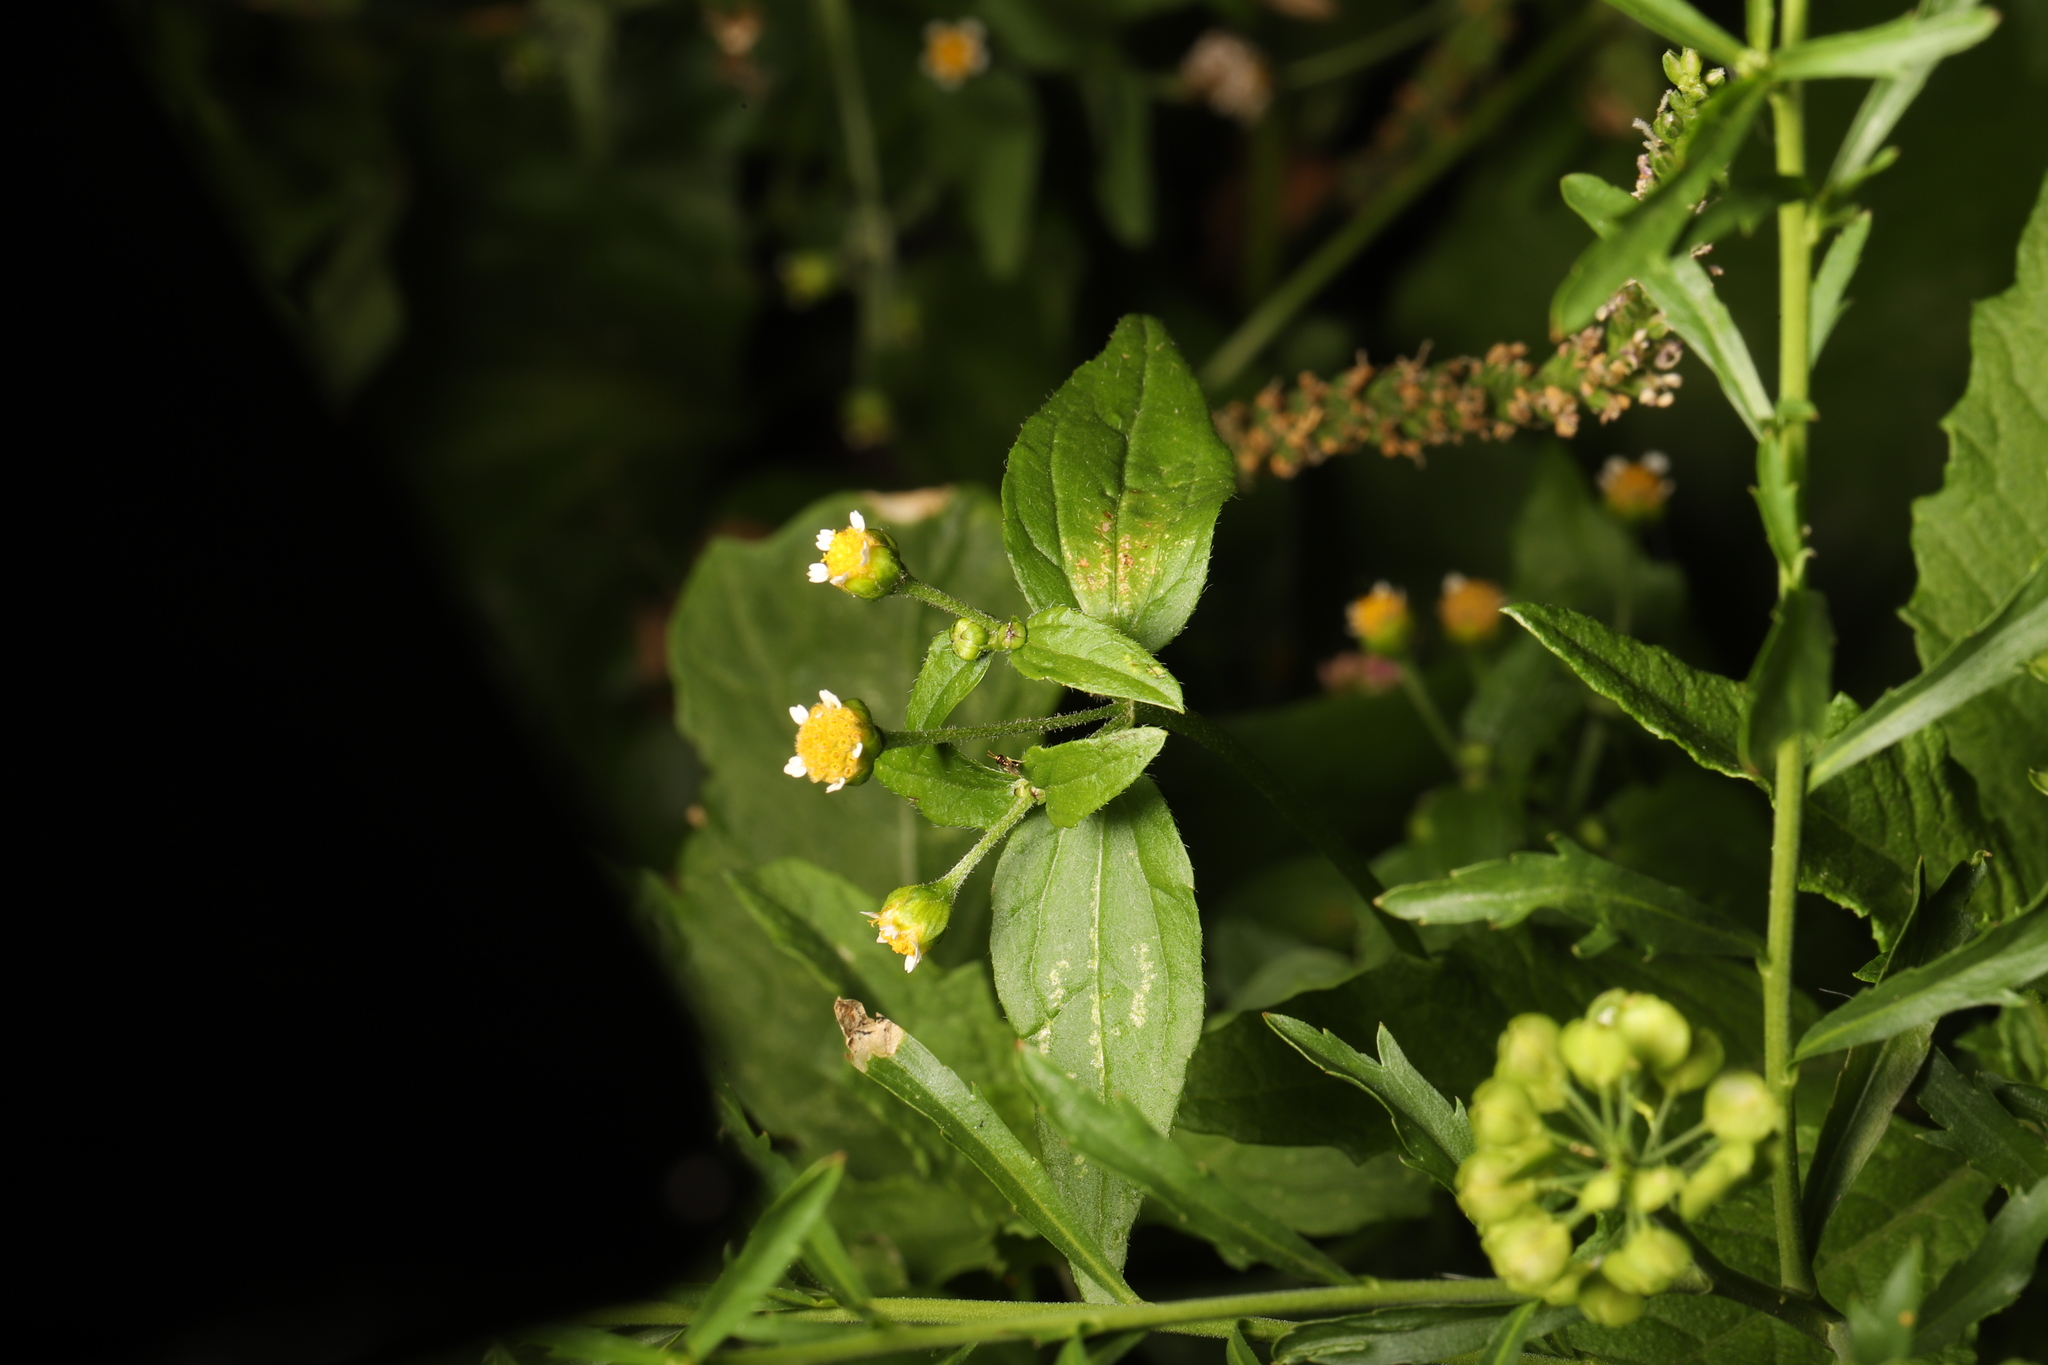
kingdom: Plantae
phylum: Tracheophyta
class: Magnoliopsida
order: Asterales
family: Asteraceae
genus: Galinsoga
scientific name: Galinsoga parviflora
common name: Gallant soldier
